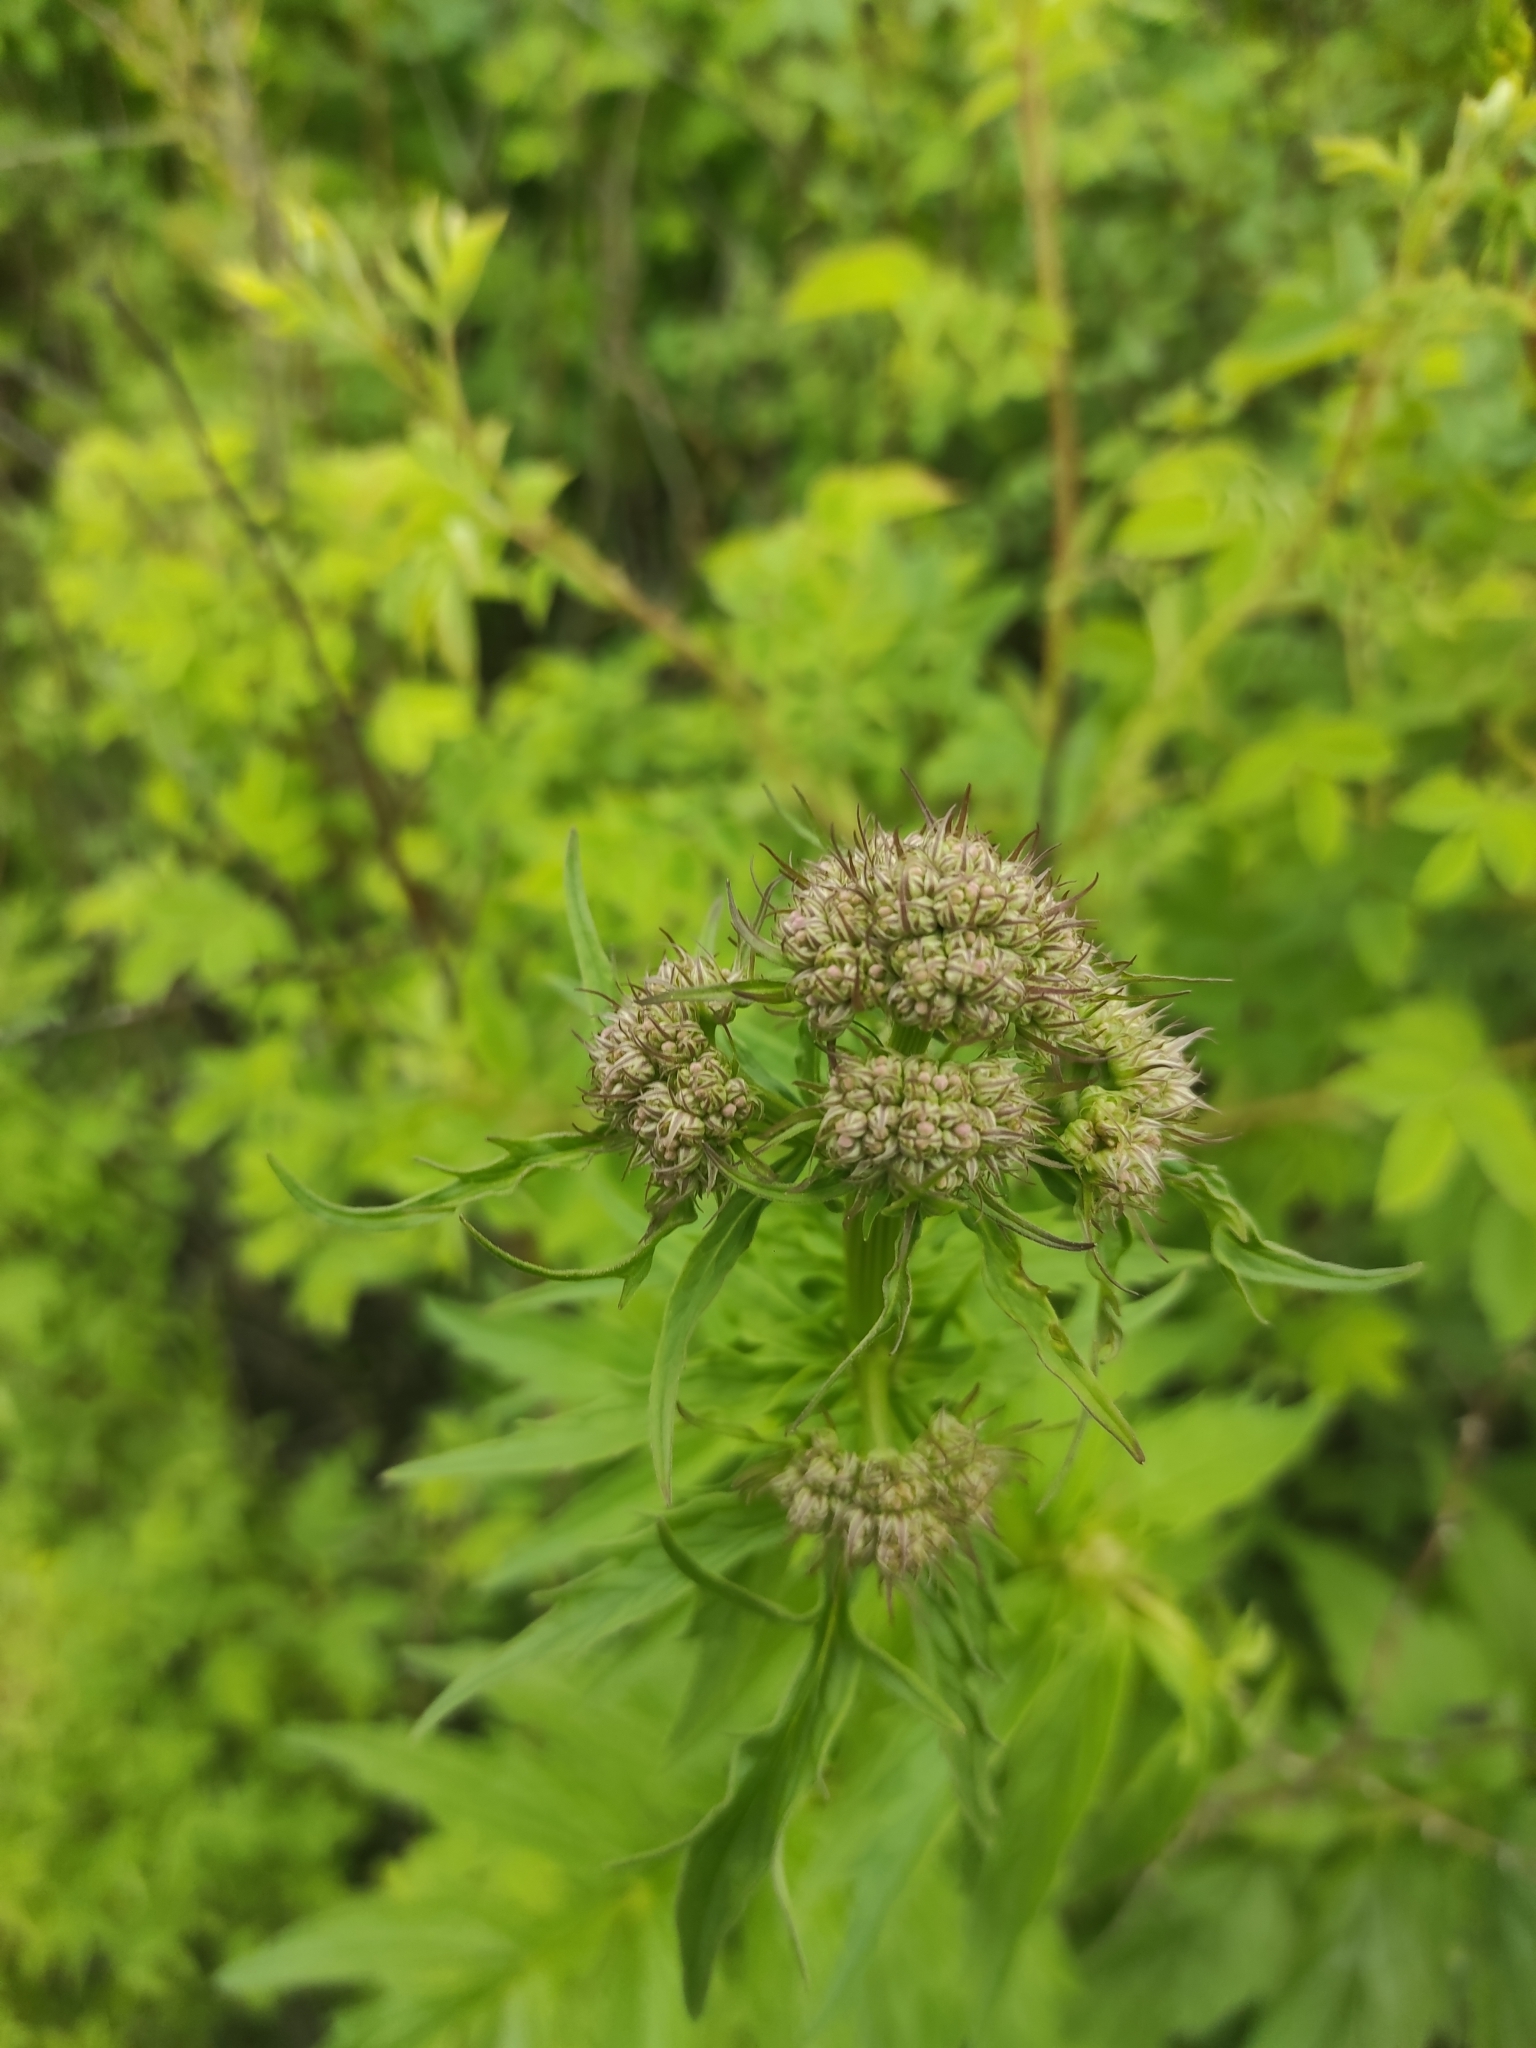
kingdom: Plantae
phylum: Tracheophyta
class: Magnoliopsida
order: Dipsacales
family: Caprifoliaceae
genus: Valeriana
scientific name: Valeriana officinalis
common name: Common valerian
